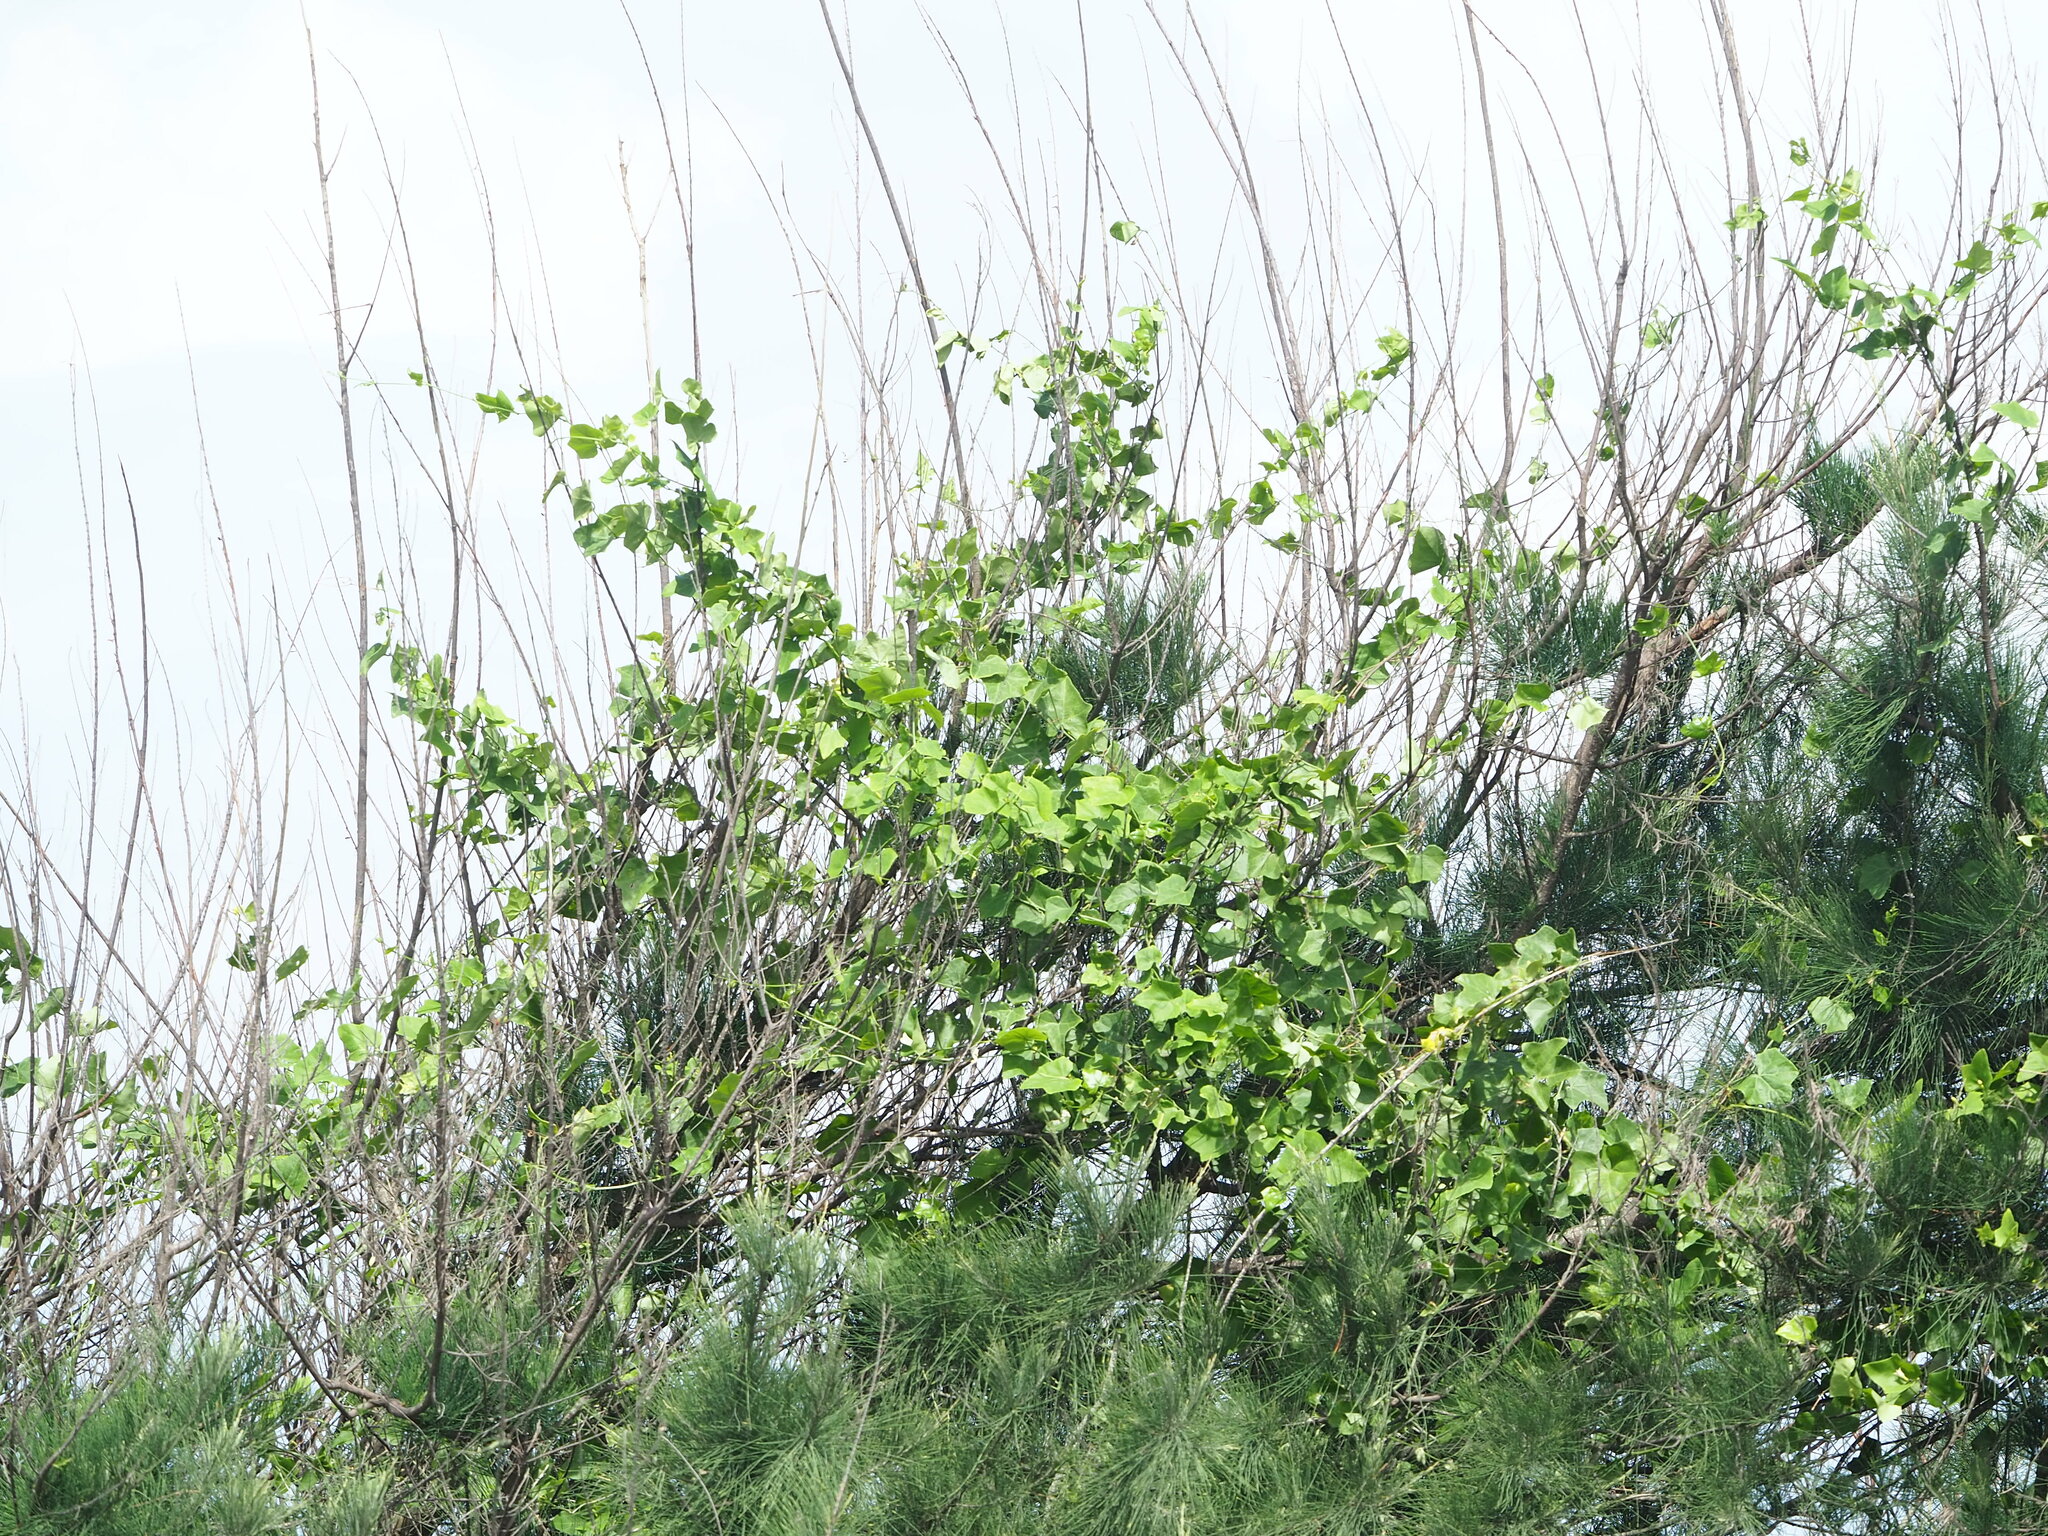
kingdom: Plantae
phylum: Tracheophyta
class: Magnoliopsida
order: Cucurbitales
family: Cucurbitaceae
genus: Coccinia
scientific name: Coccinia grandis
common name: Ivy gourd
